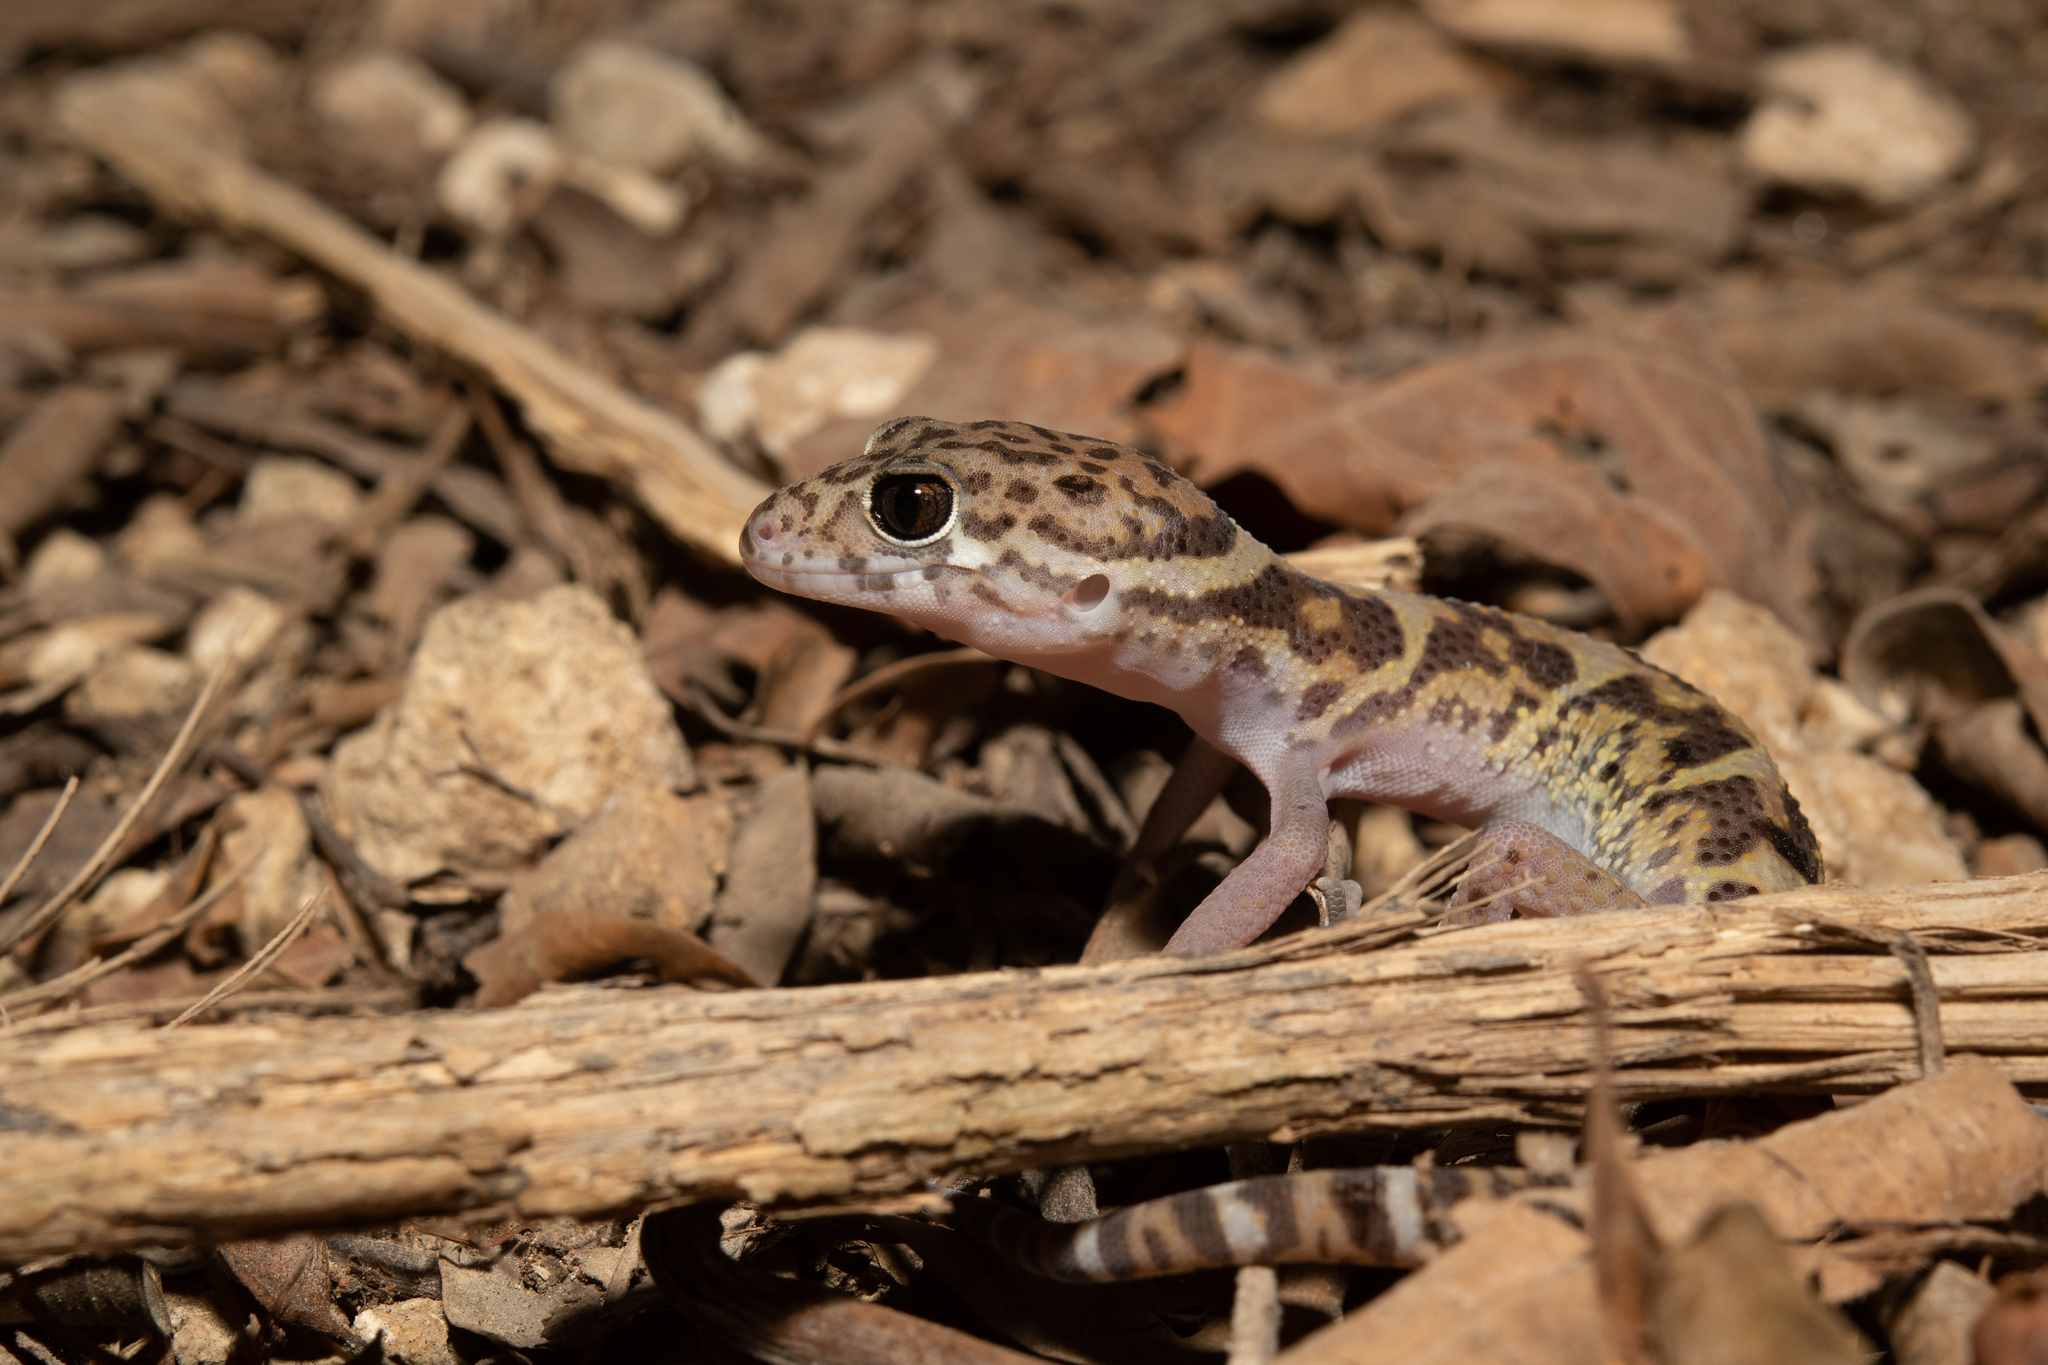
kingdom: Animalia
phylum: Chordata
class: Squamata
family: Eublepharidae
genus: Coleonyx
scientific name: Coleonyx mitratus
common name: Central american banded gecko
